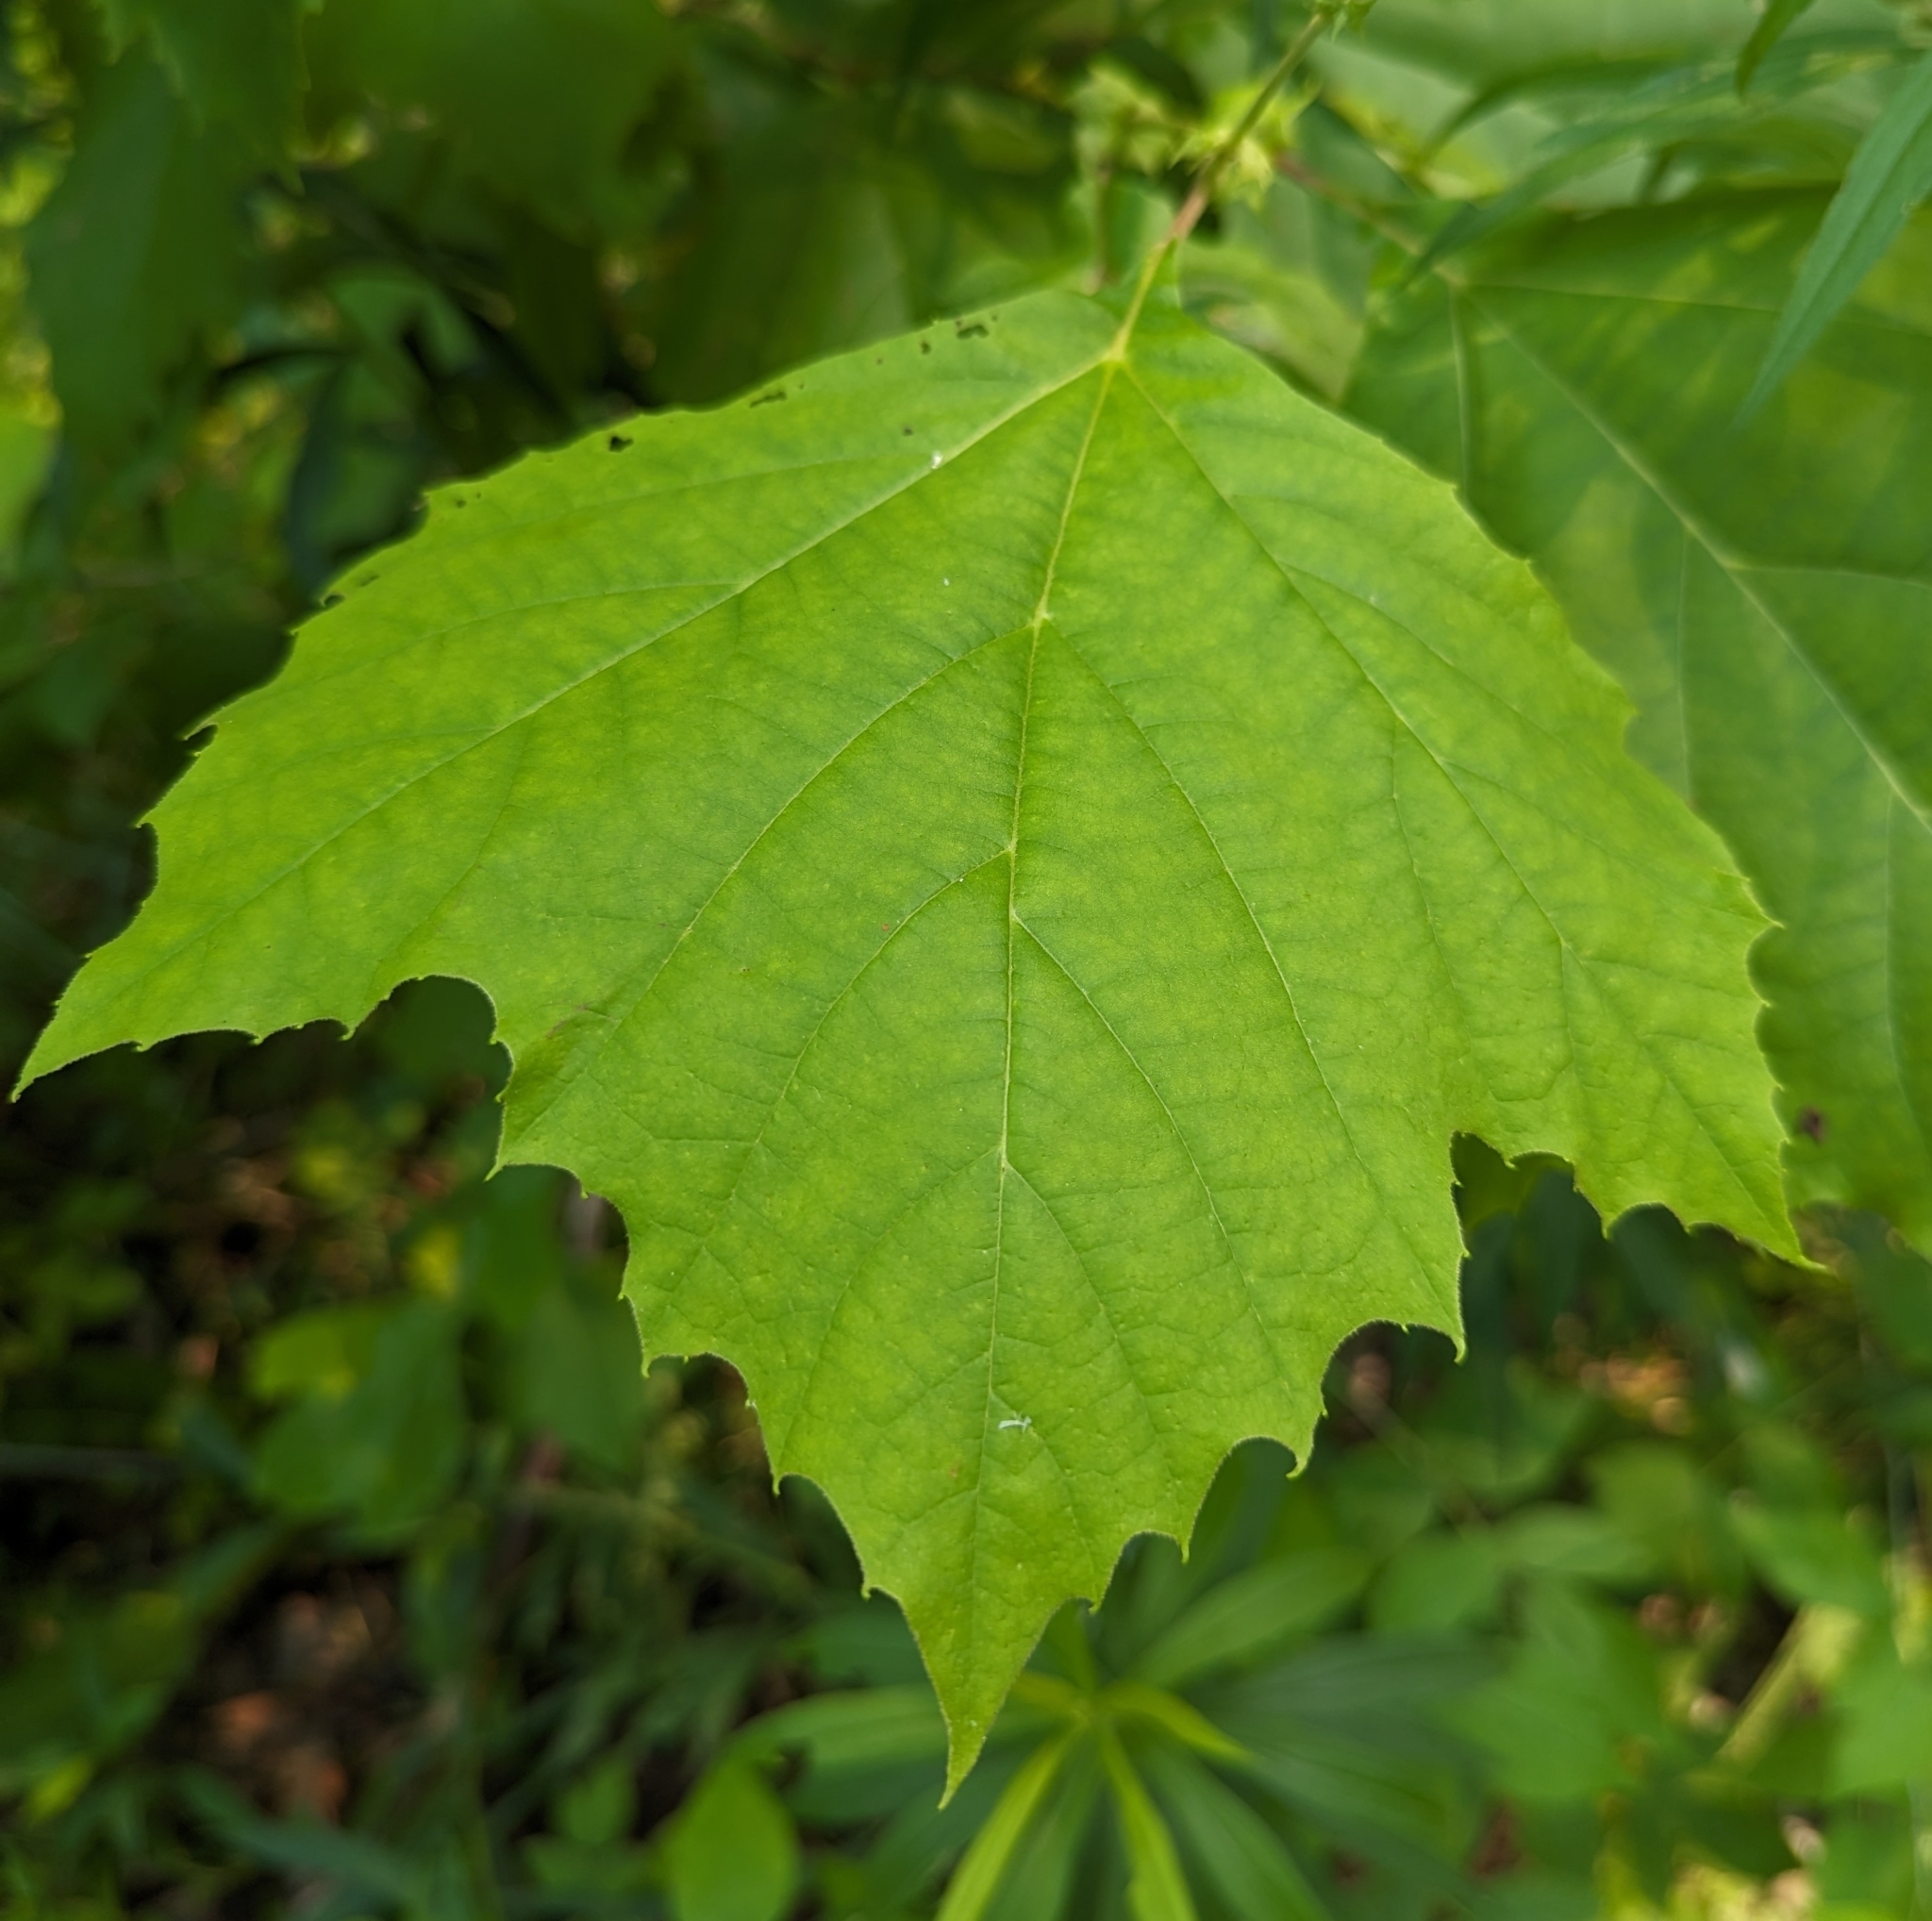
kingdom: Plantae
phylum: Tracheophyta
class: Magnoliopsida
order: Proteales
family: Platanaceae
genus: Platanus
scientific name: Platanus occidentalis
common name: American sycamore
